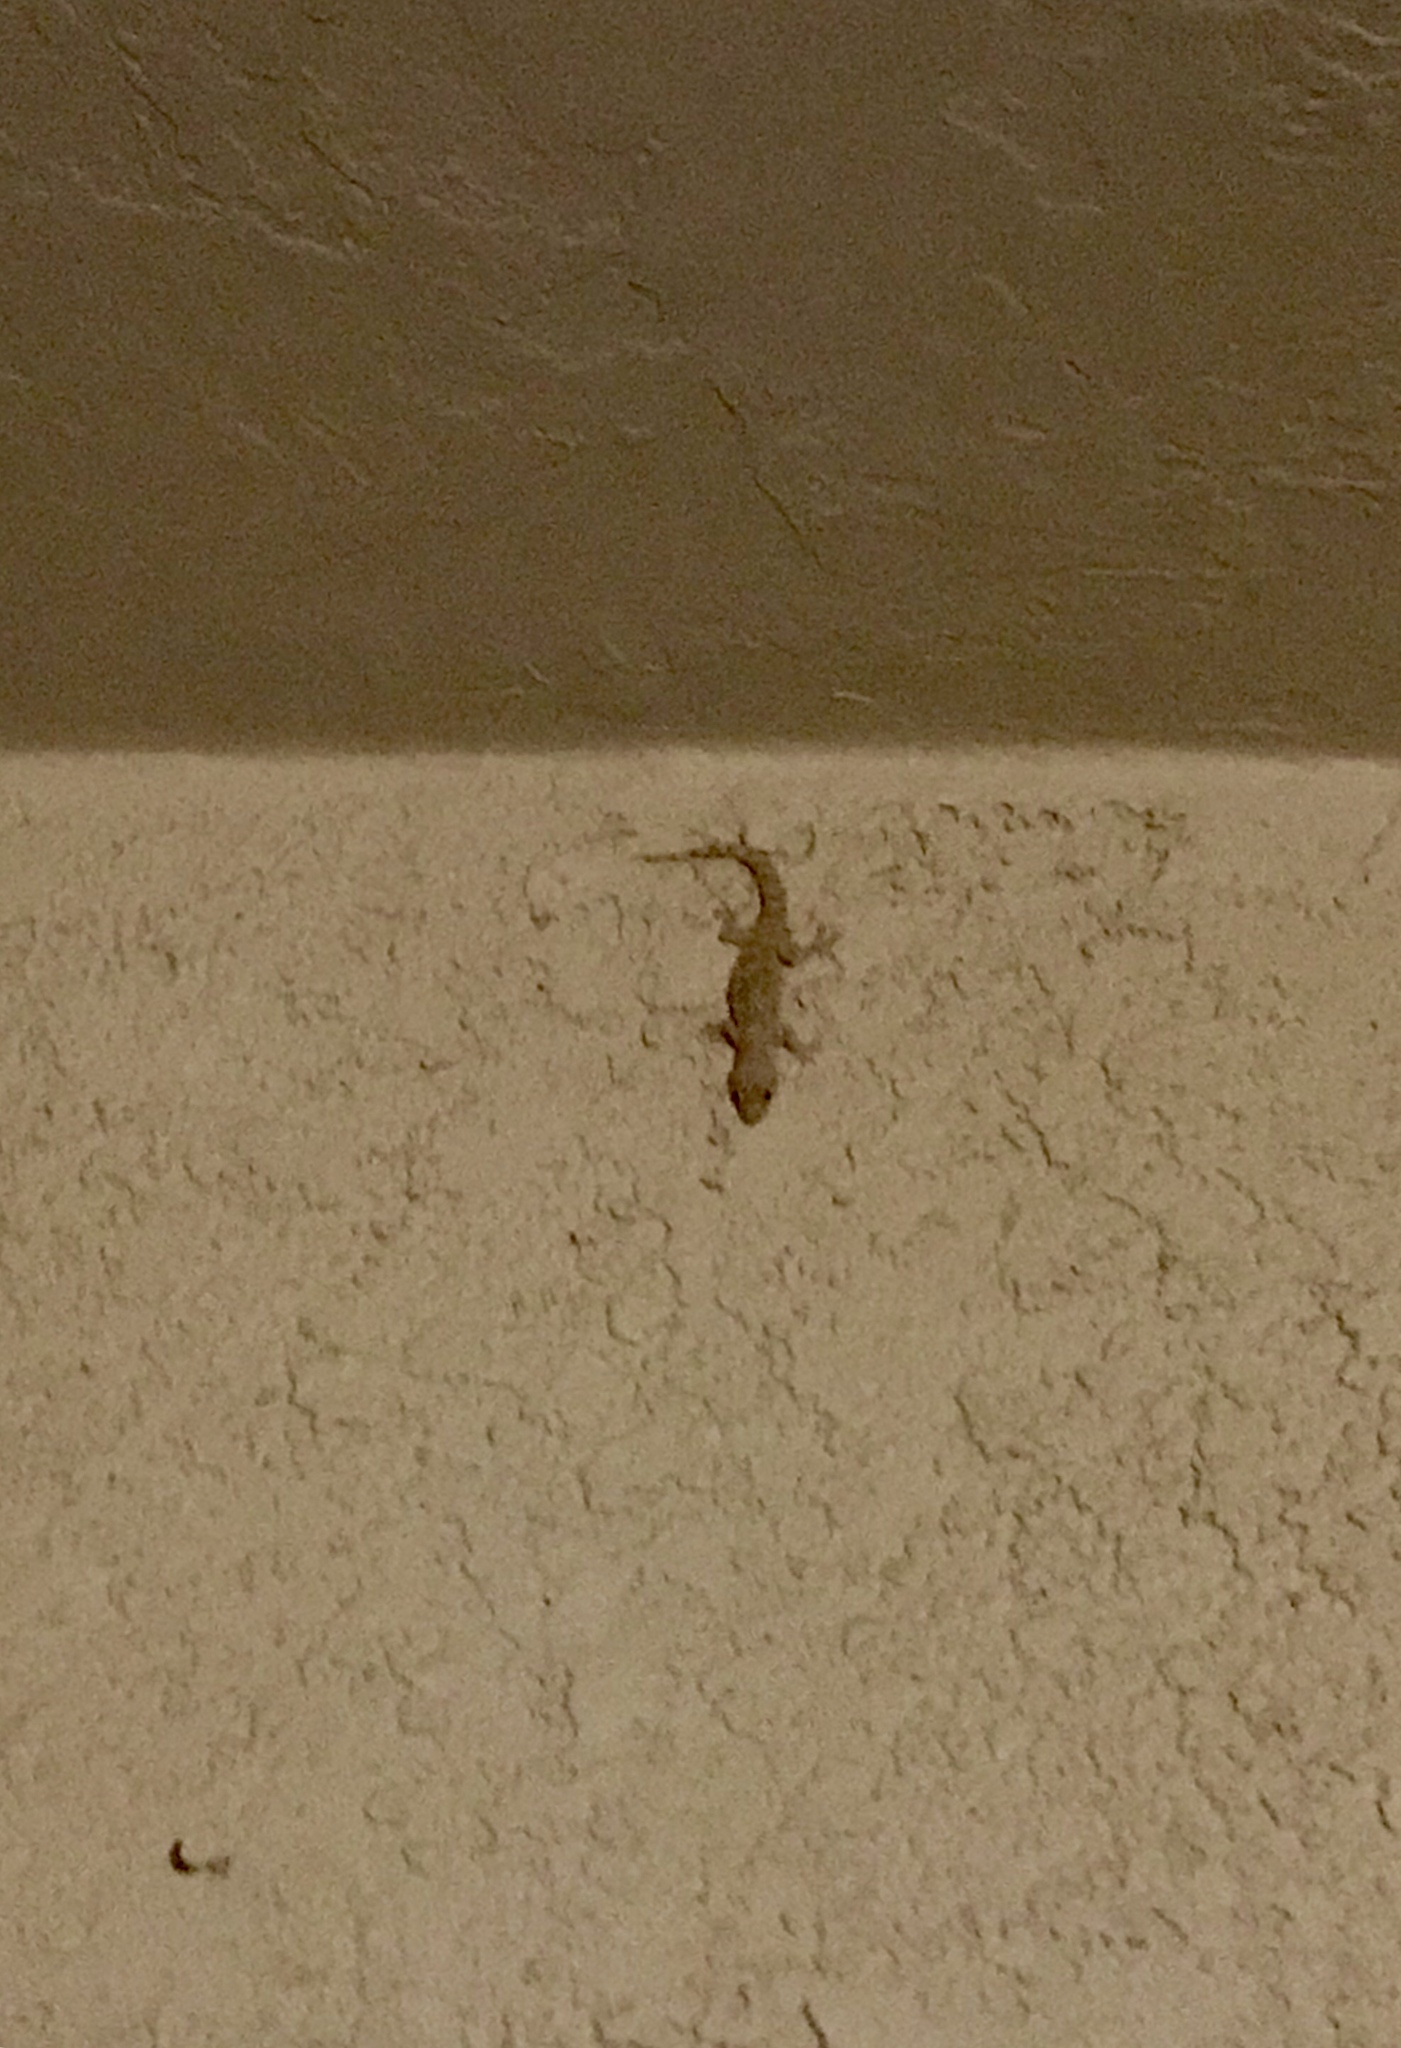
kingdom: Animalia
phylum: Chordata
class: Squamata
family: Gekkonidae
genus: Hemidactylus
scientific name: Hemidactylus turcicus
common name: Turkish gecko
